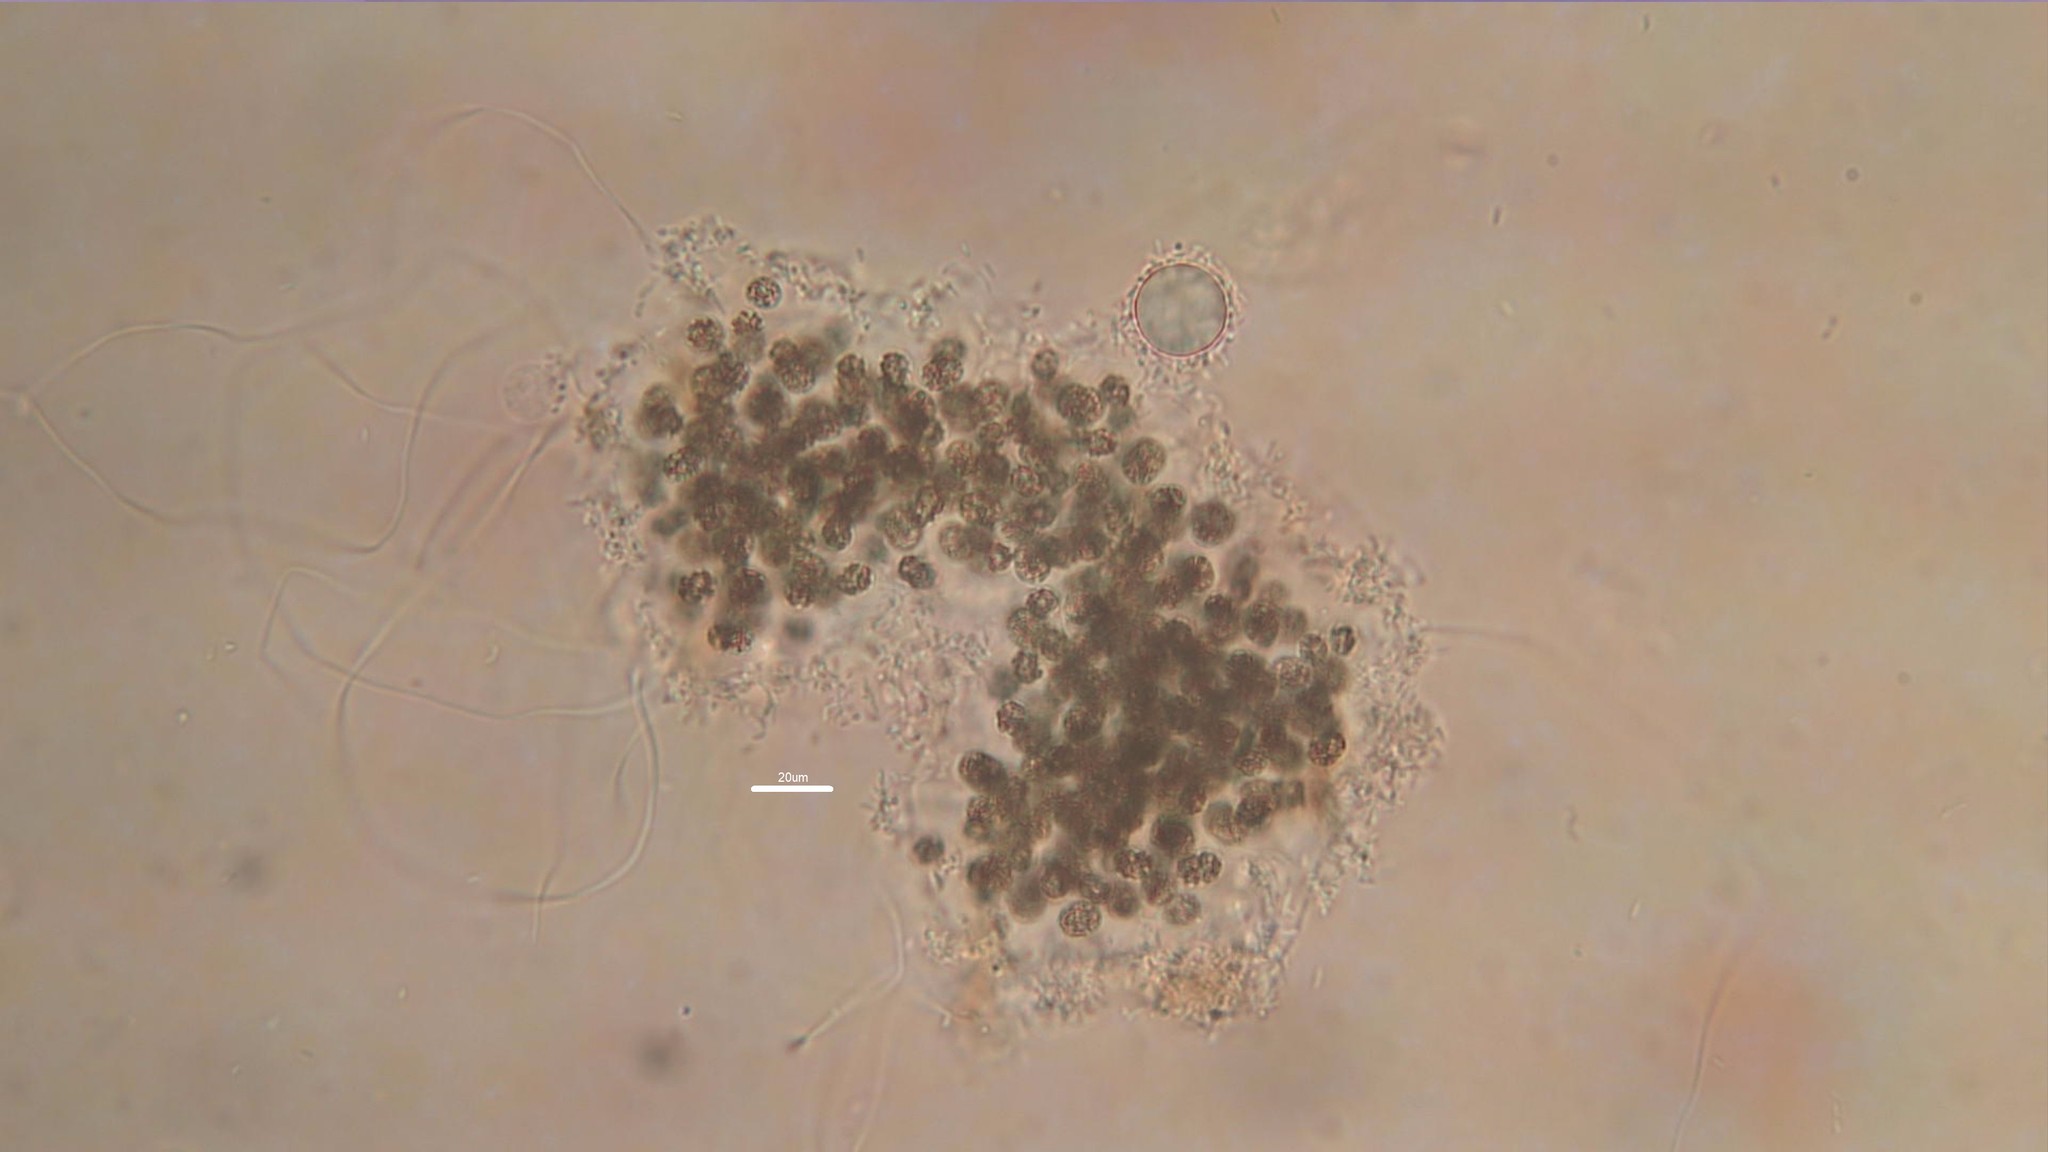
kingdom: Bacteria
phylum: Cyanobacteria
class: Cyanobacteriia
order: Cyanobacteriales
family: Microcystaceae
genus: Microcystis
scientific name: Microcystis aeruginosa
